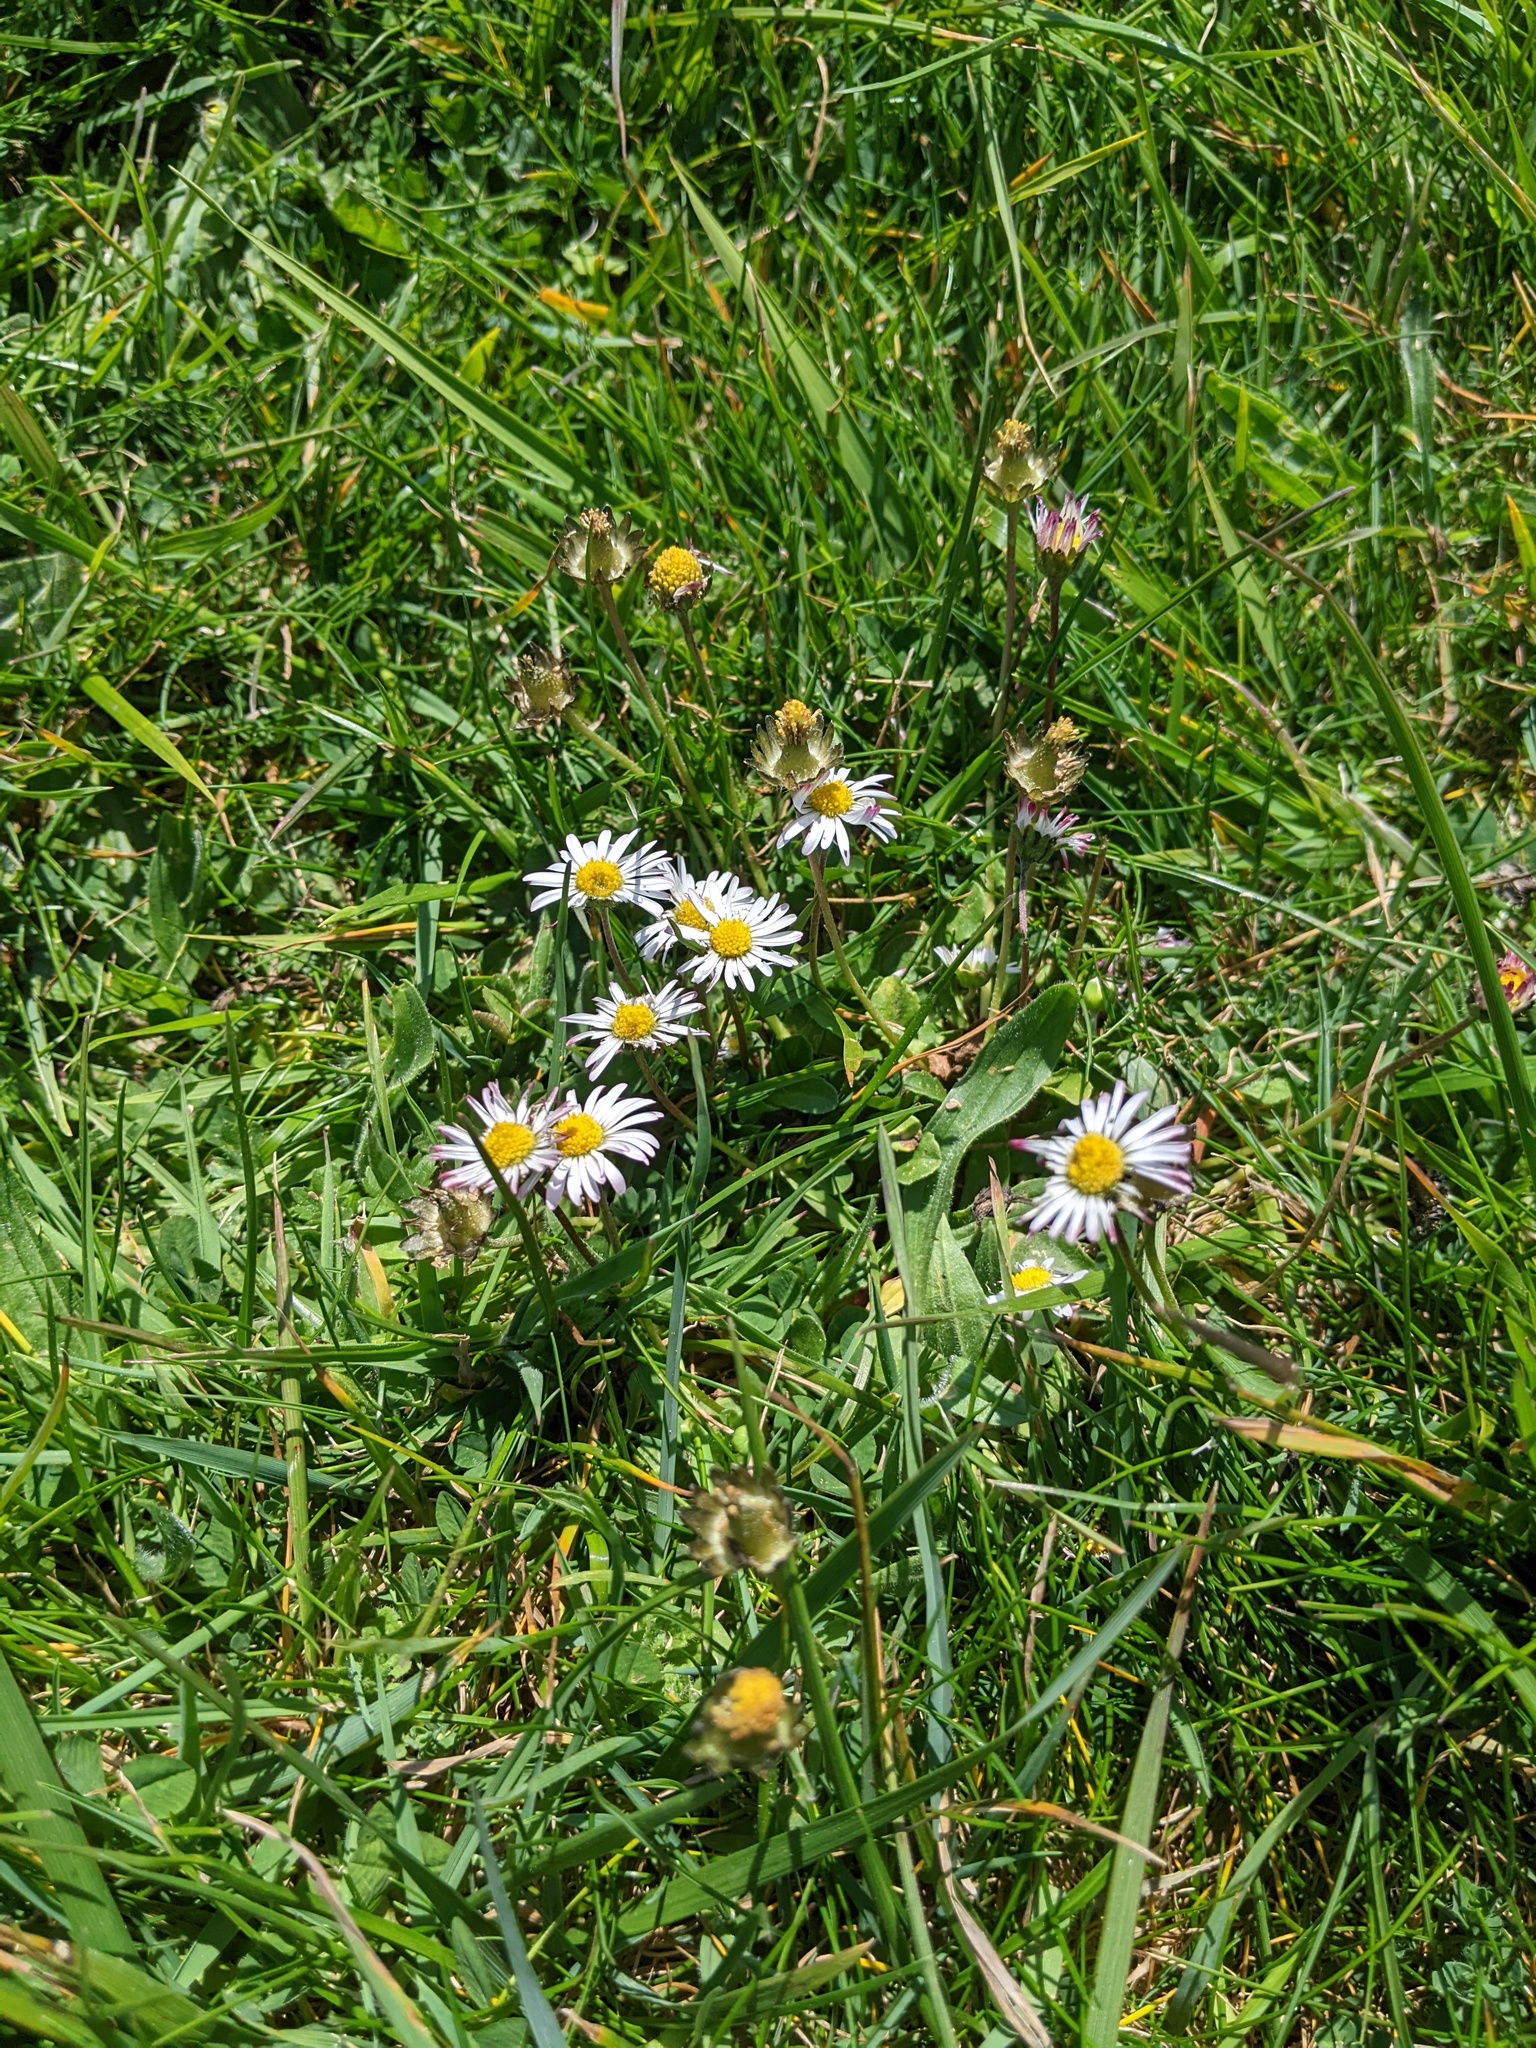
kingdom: Plantae
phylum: Tracheophyta
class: Magnoliopsida
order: Asterales
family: Asteraceae
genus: Bellis
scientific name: Bellis perennis
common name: Lawndaisy
